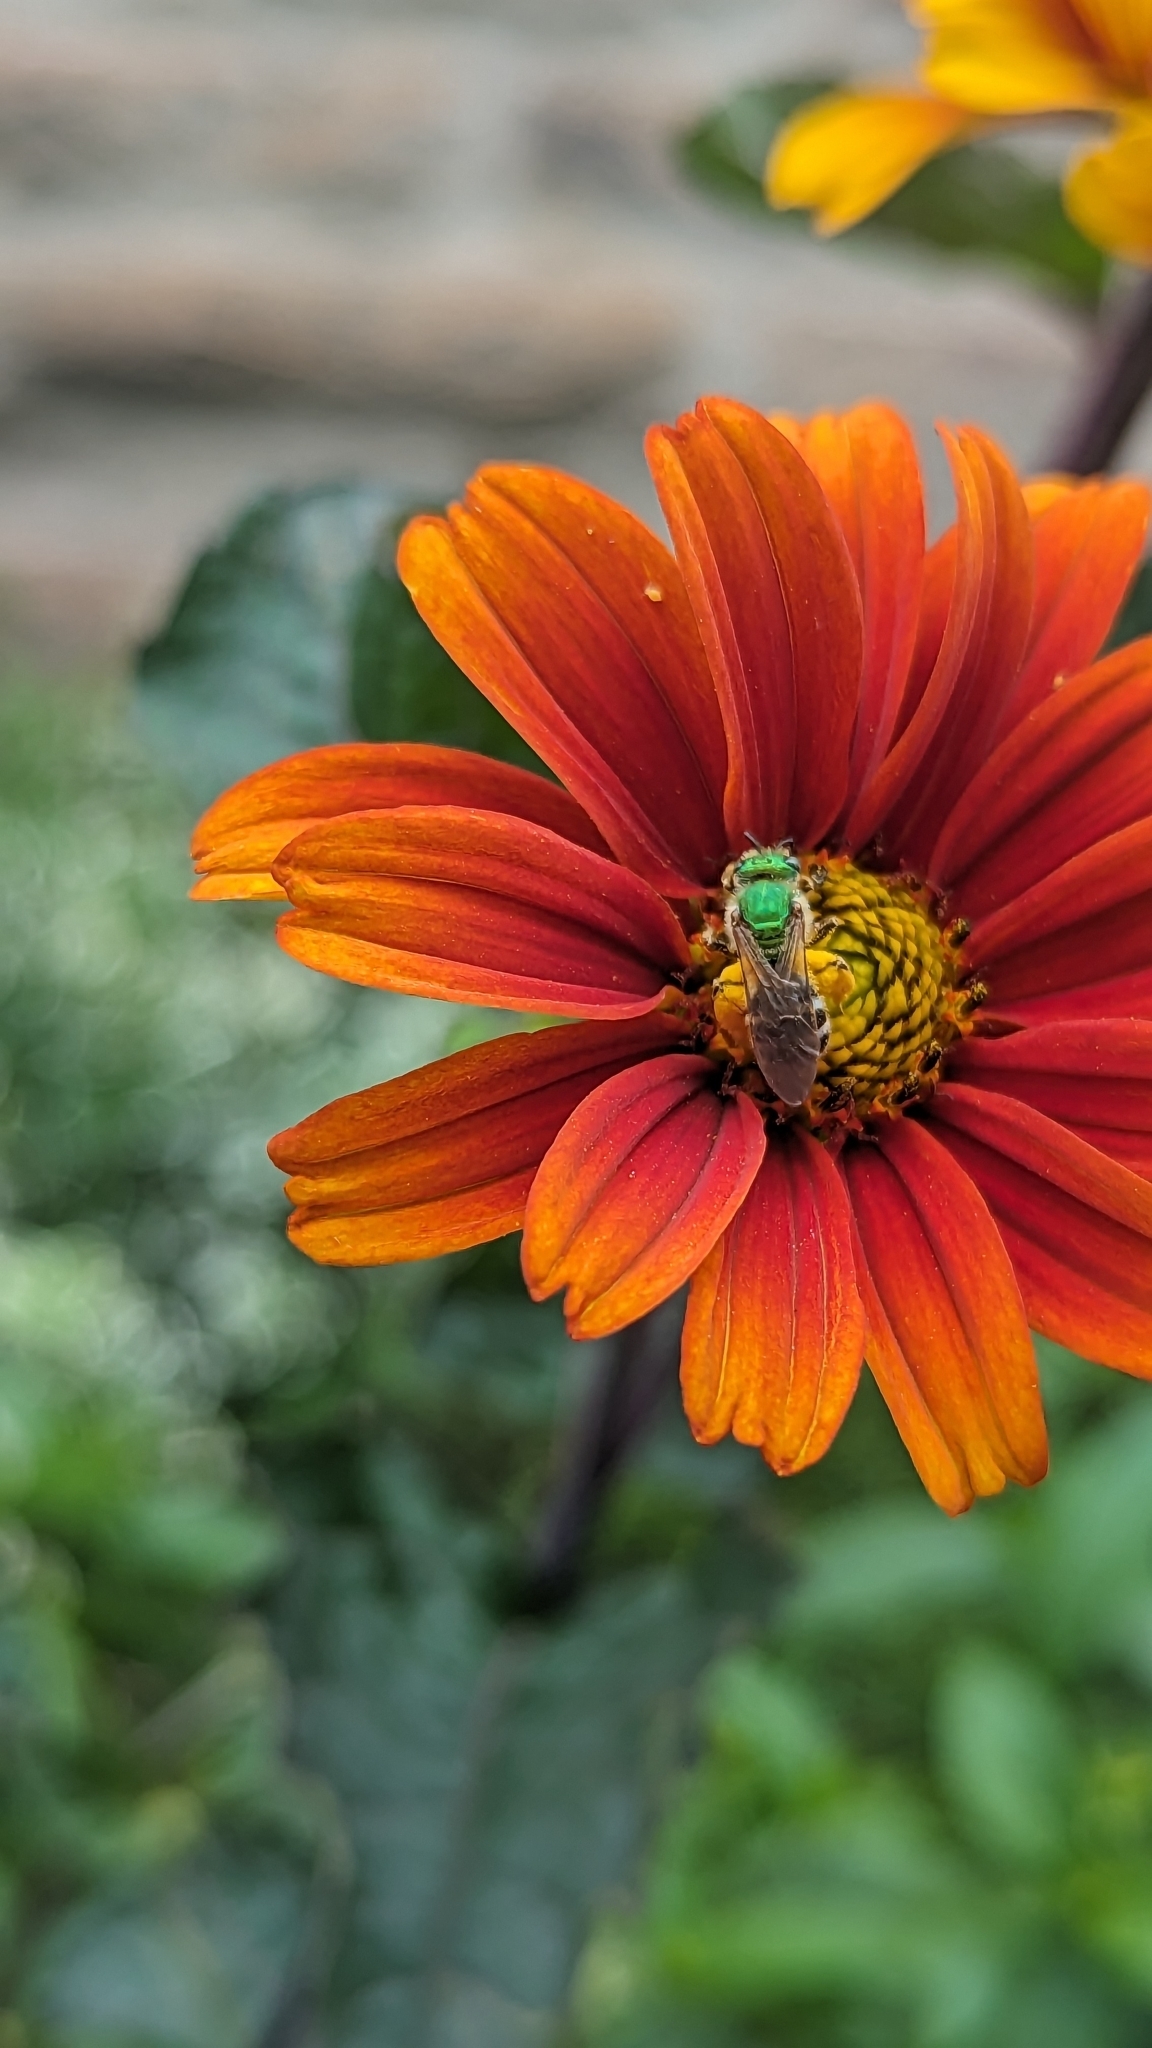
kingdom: Animalia
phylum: Arthropoda
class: Insecta
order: Hymenoptera
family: Halictidae
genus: Agapostemon
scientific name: Agapostemon virescens
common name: Bicolored striped sweat bee
